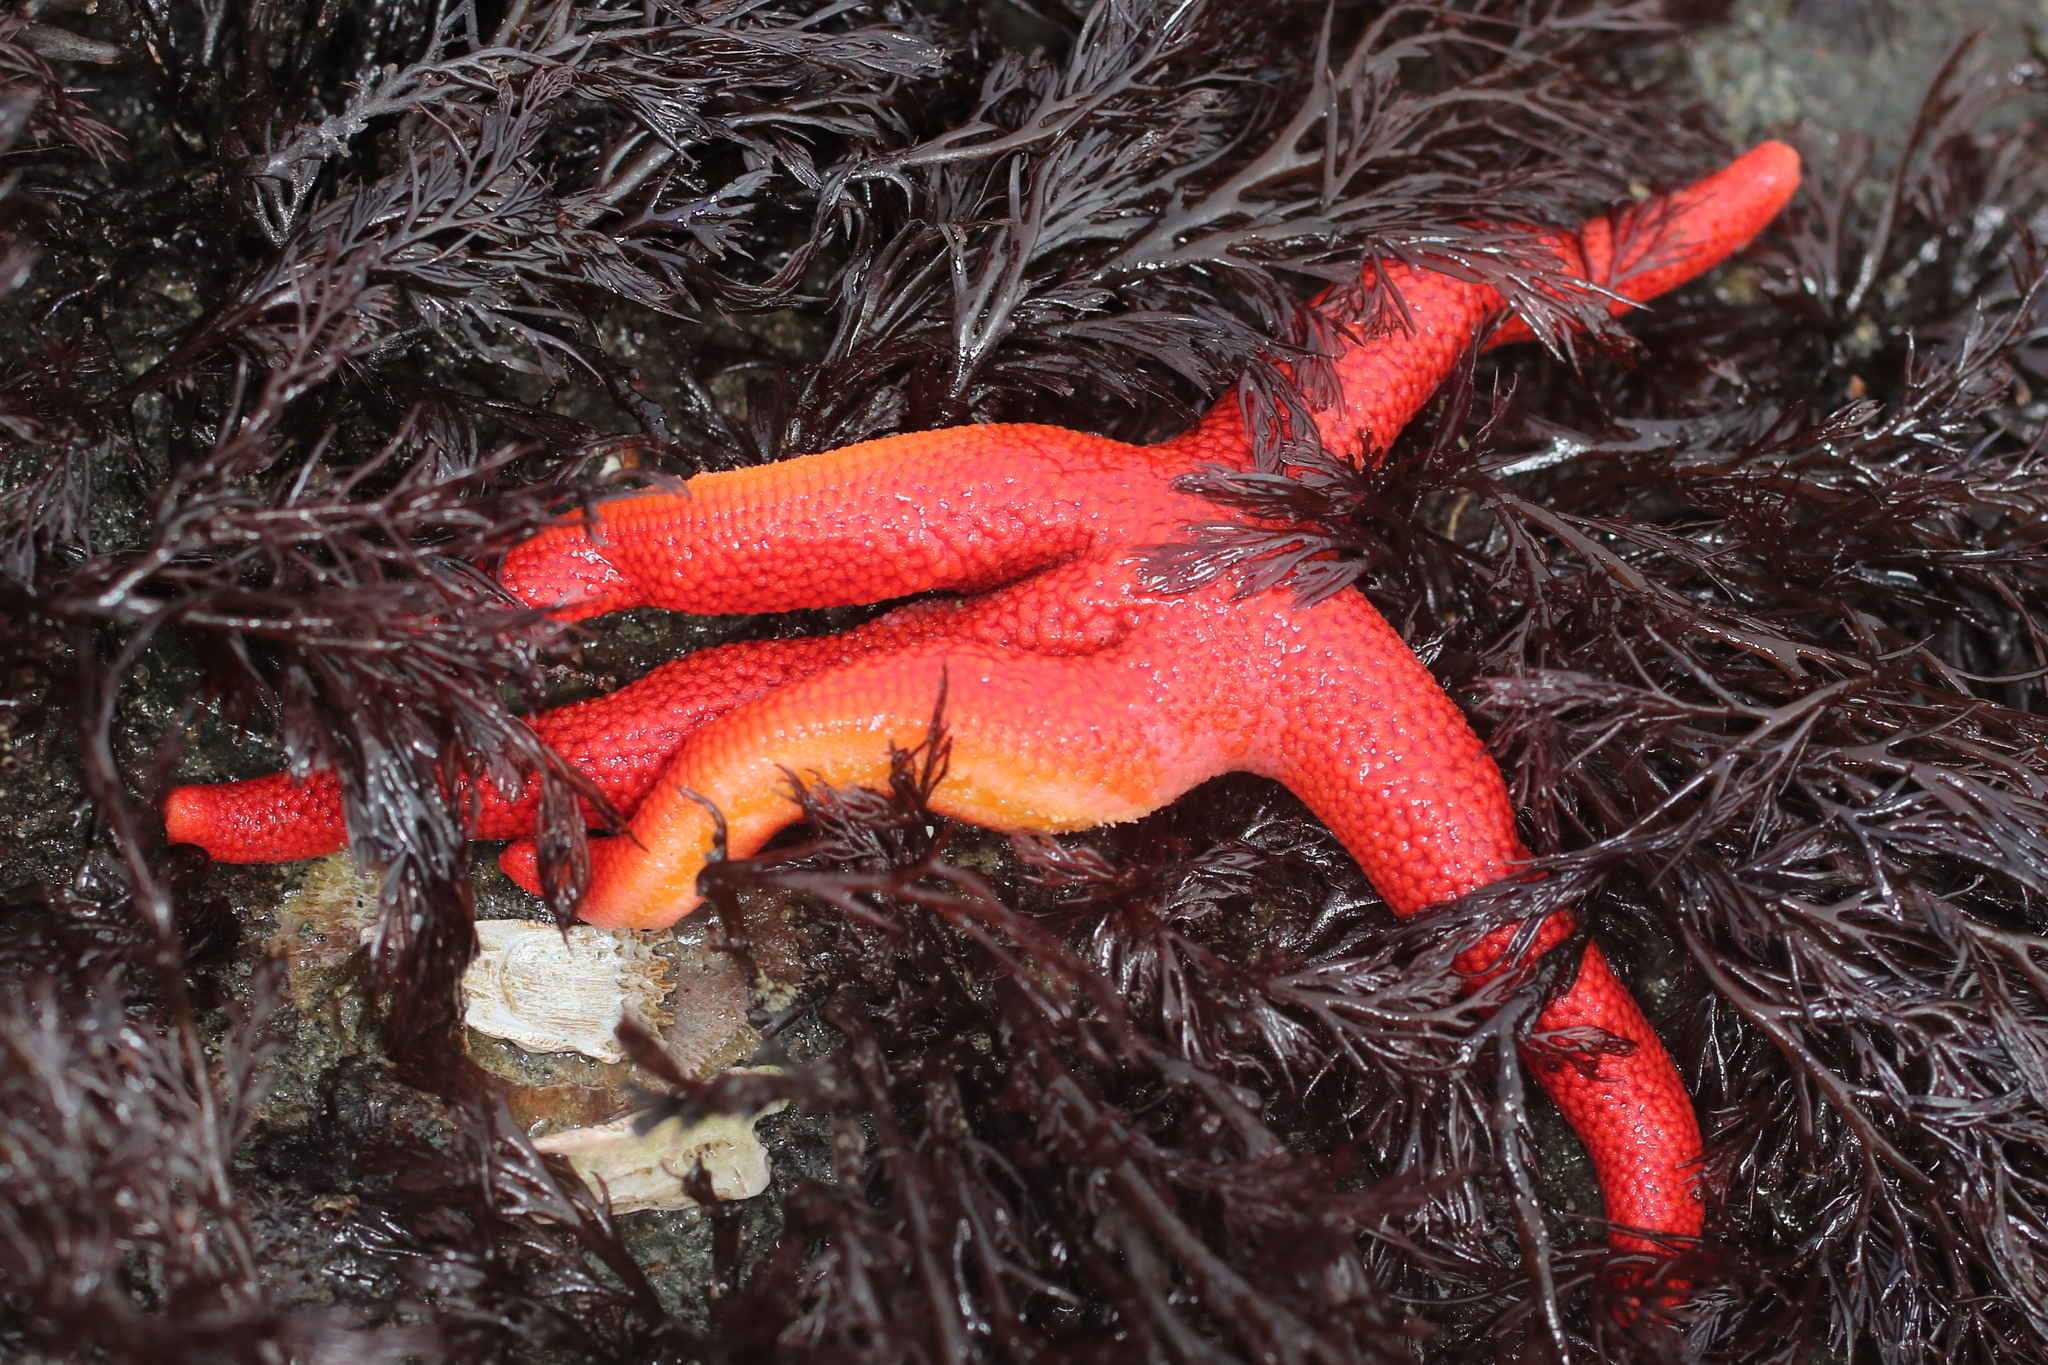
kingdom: Animalia
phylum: Echinodermata
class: Asteroidea
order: Spinulosida
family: Echinasteridae
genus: Henricia
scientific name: Henricia leviuscula
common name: Pacific blood star
